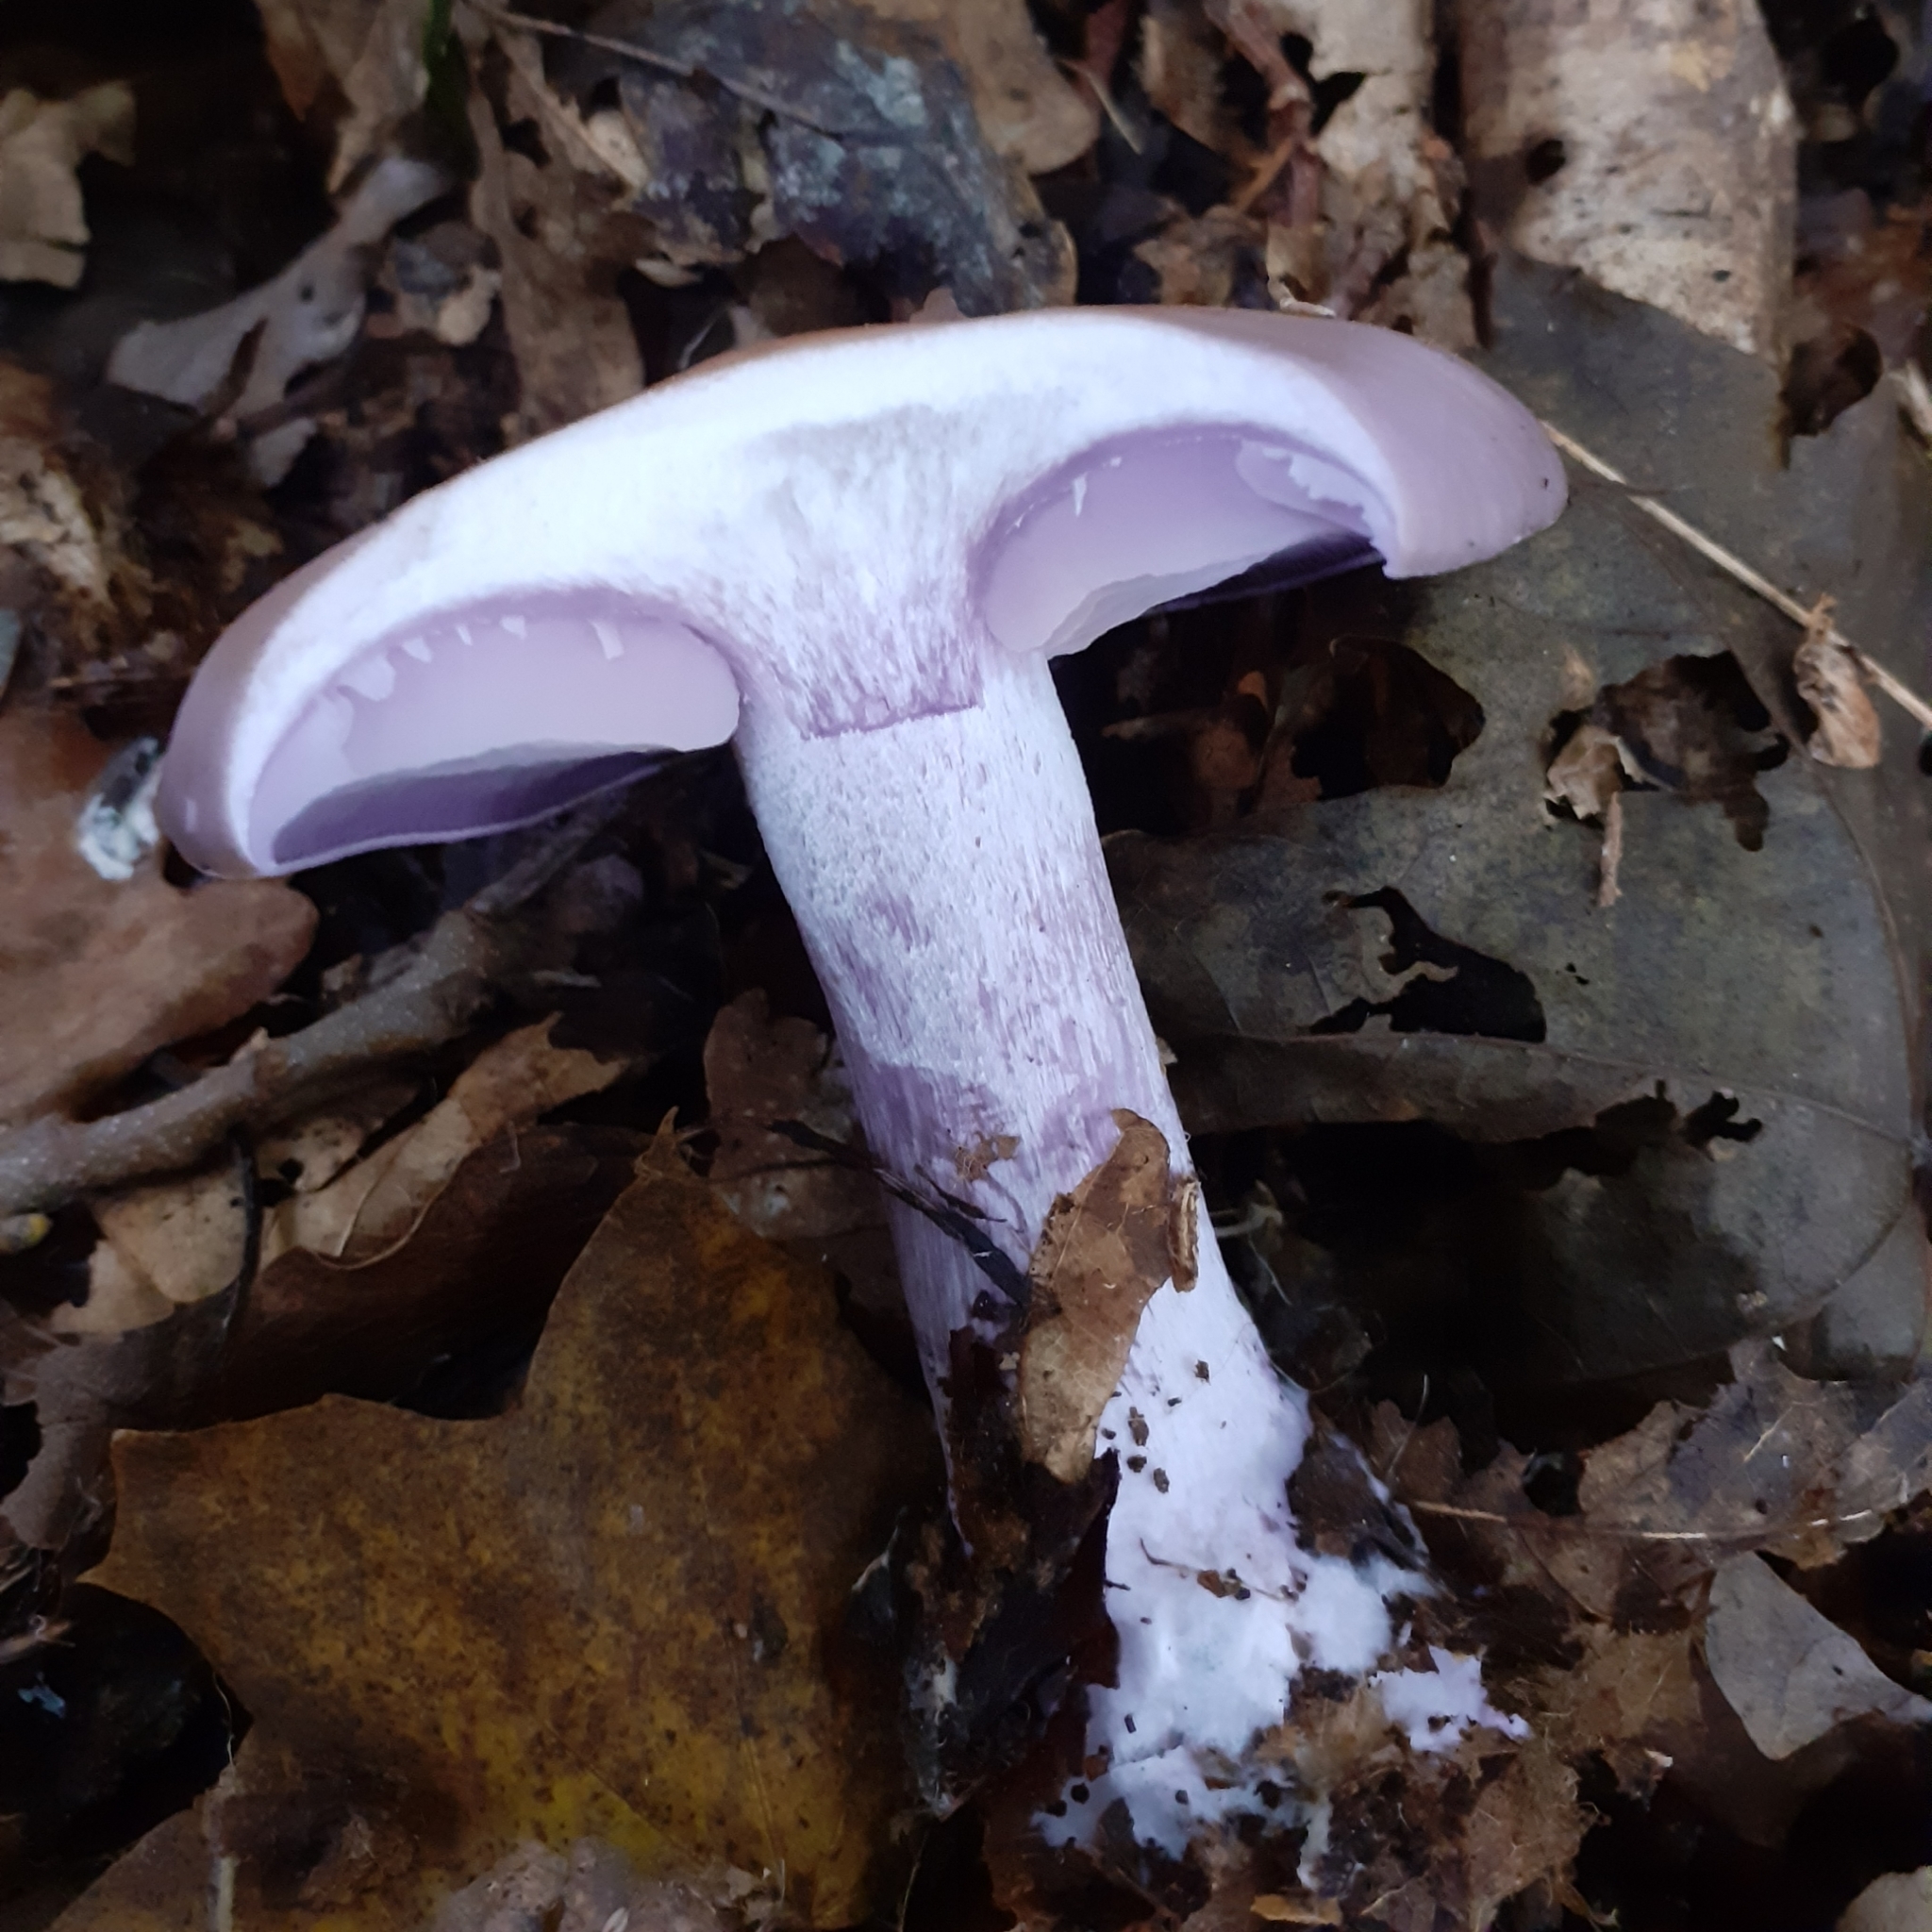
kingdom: Fungi
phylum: Basidiomycota
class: Agaricomycetes
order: Agaricales
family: Tricholomataceae
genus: Collybia
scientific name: Collybia
